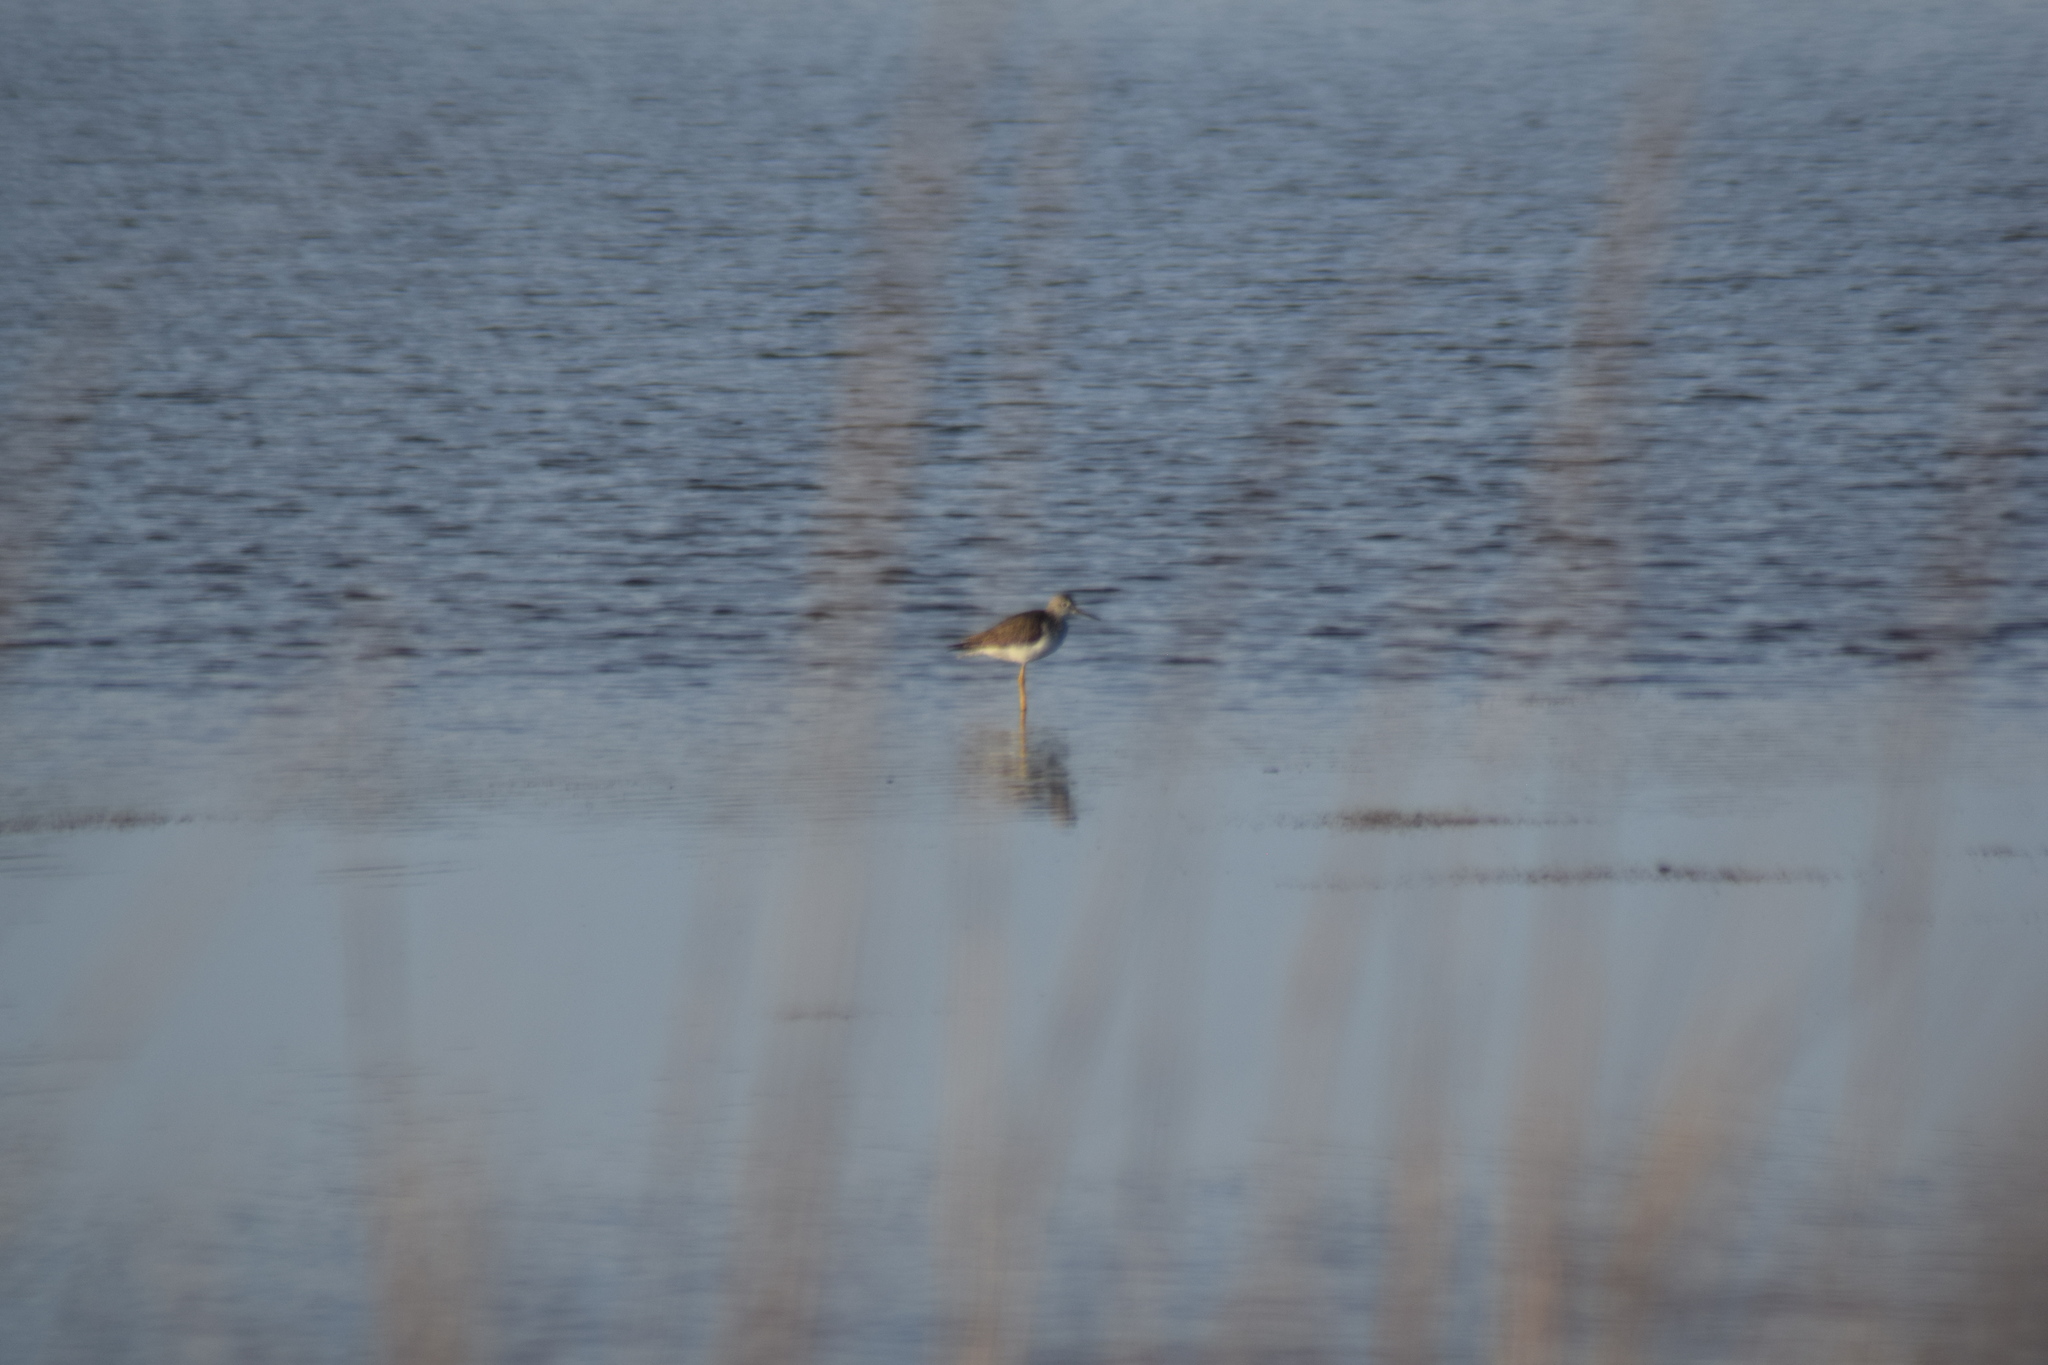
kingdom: Animalia
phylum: Chordata
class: Aves
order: Charadriiformes
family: Scolopacidae
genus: Tringa
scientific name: Tringa melanoleuca
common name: Greater yellowlegs
